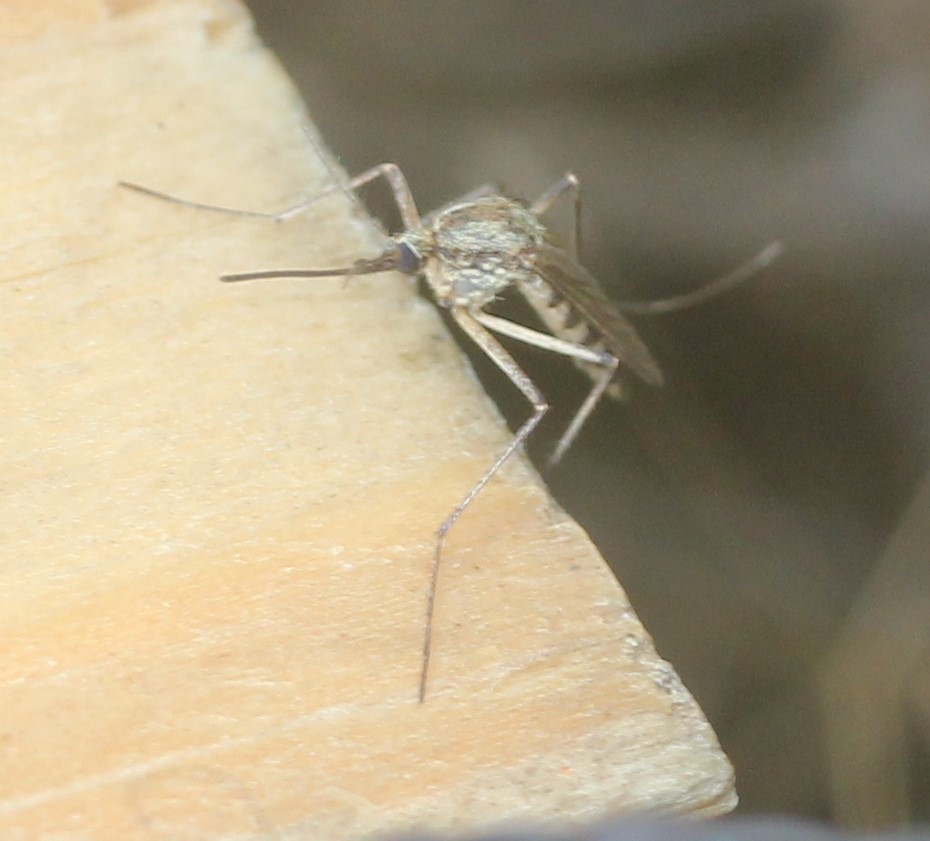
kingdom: Animalia
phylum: Arthropoda
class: Insecta
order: Diptera
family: Culicidae
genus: Aedes
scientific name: Aedes communis
